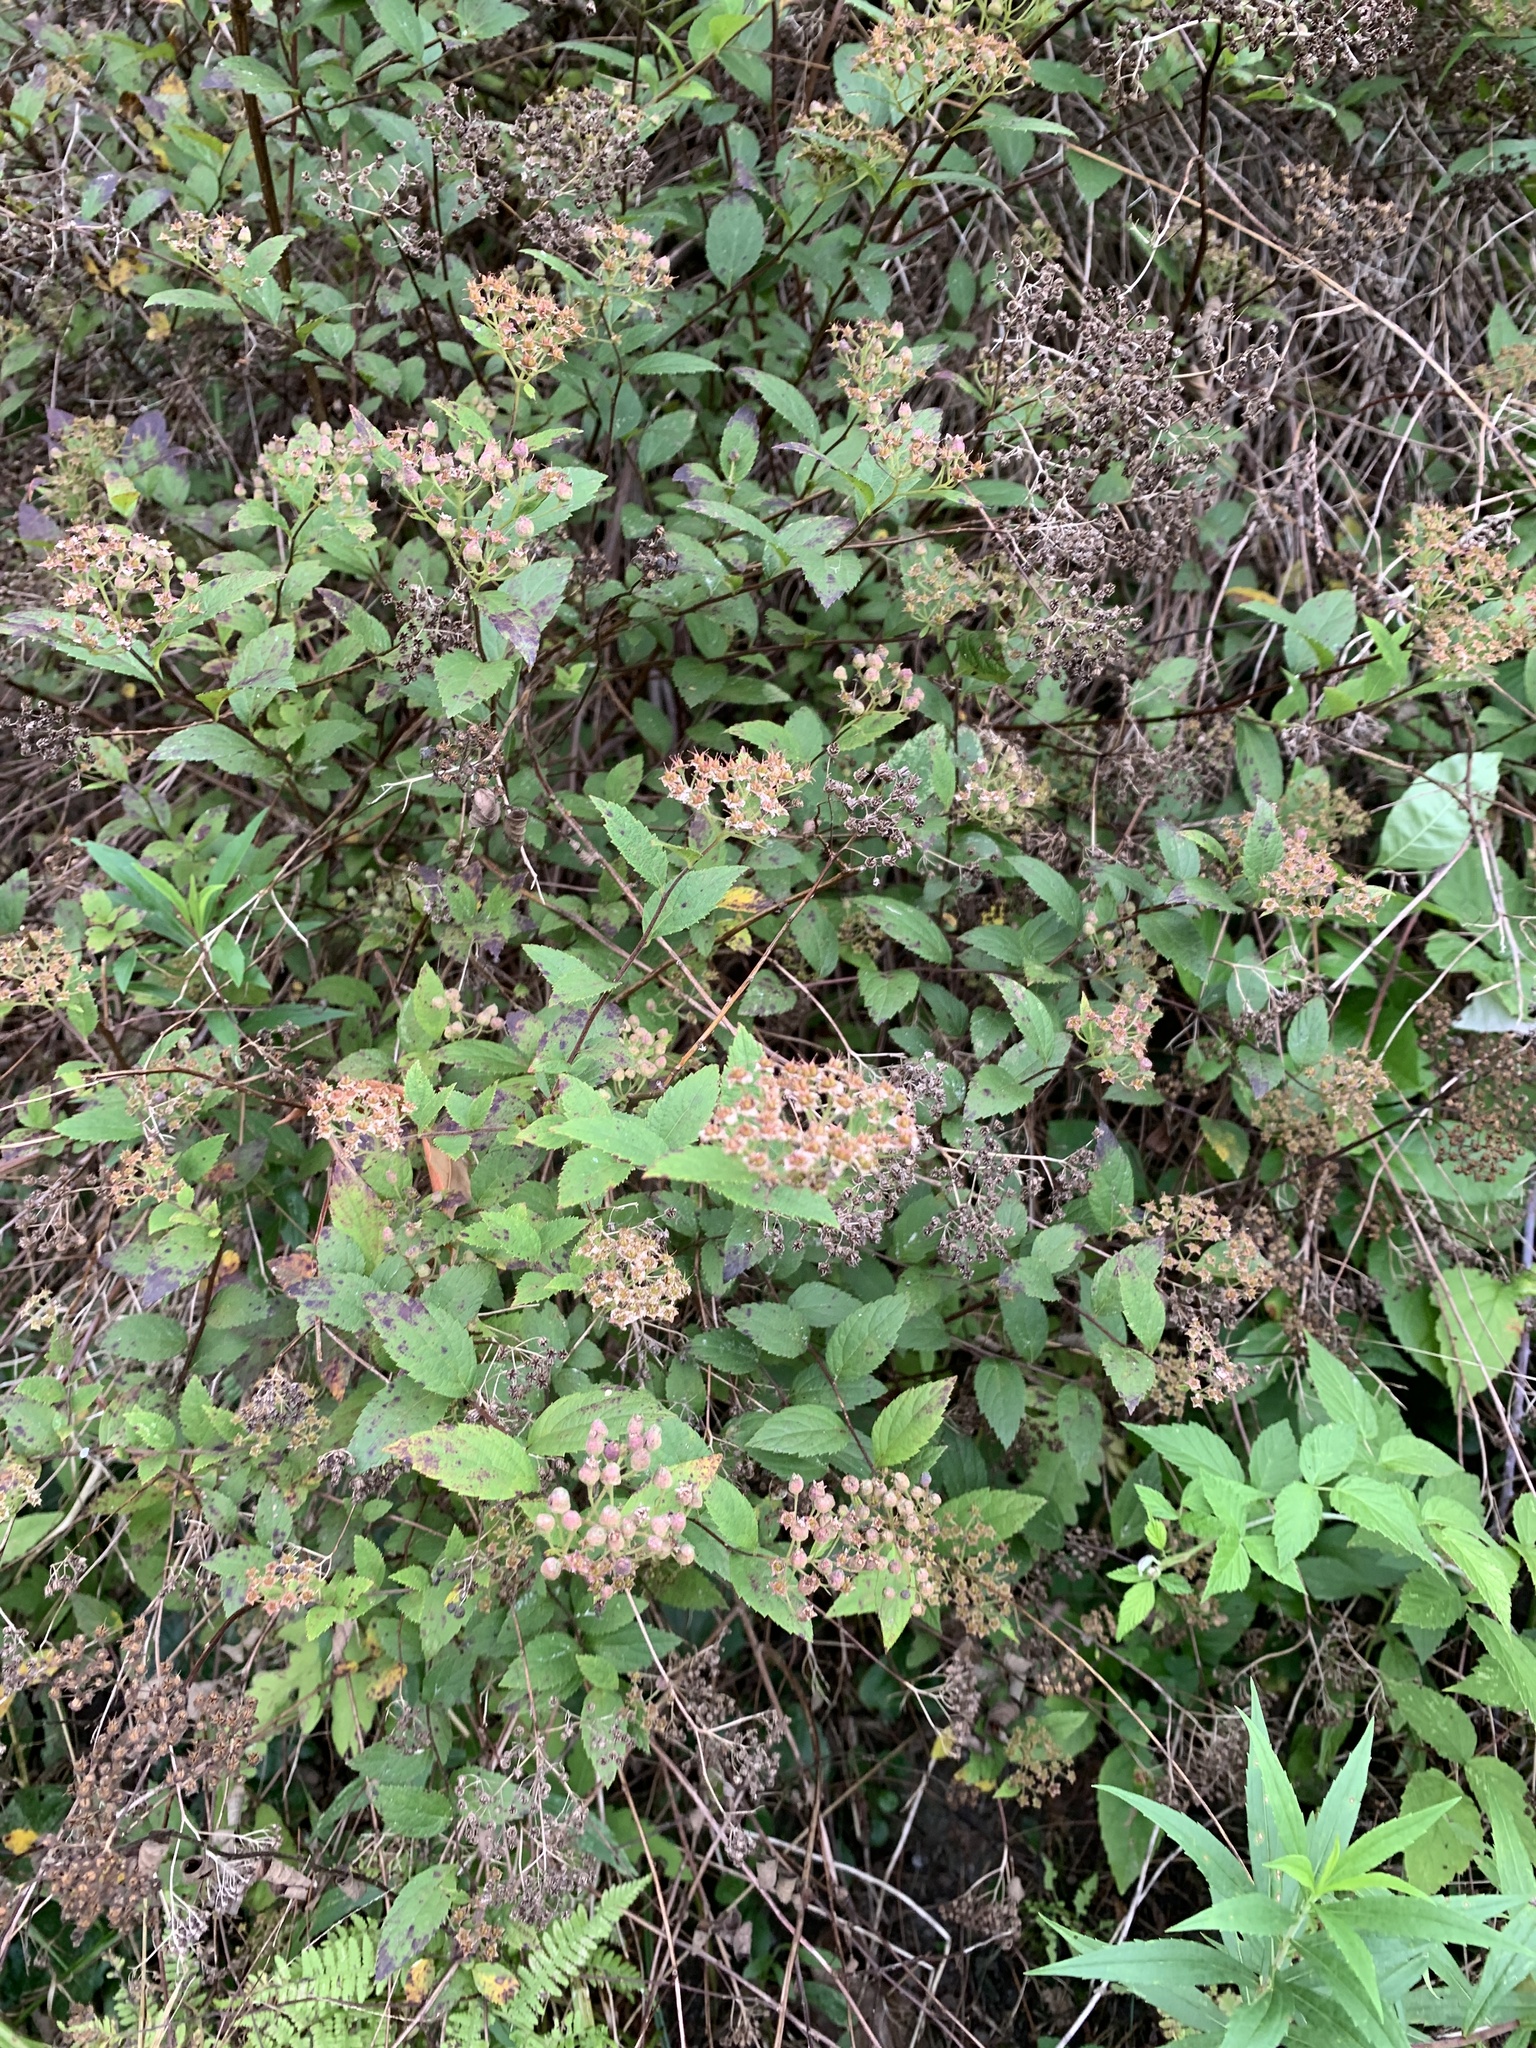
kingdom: Plantae
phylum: Tracheophyta
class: Magnoliopsida
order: Rosales
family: Rosaceae
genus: Spiraea
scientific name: Spiraea japonica
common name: Japanese spiraea
